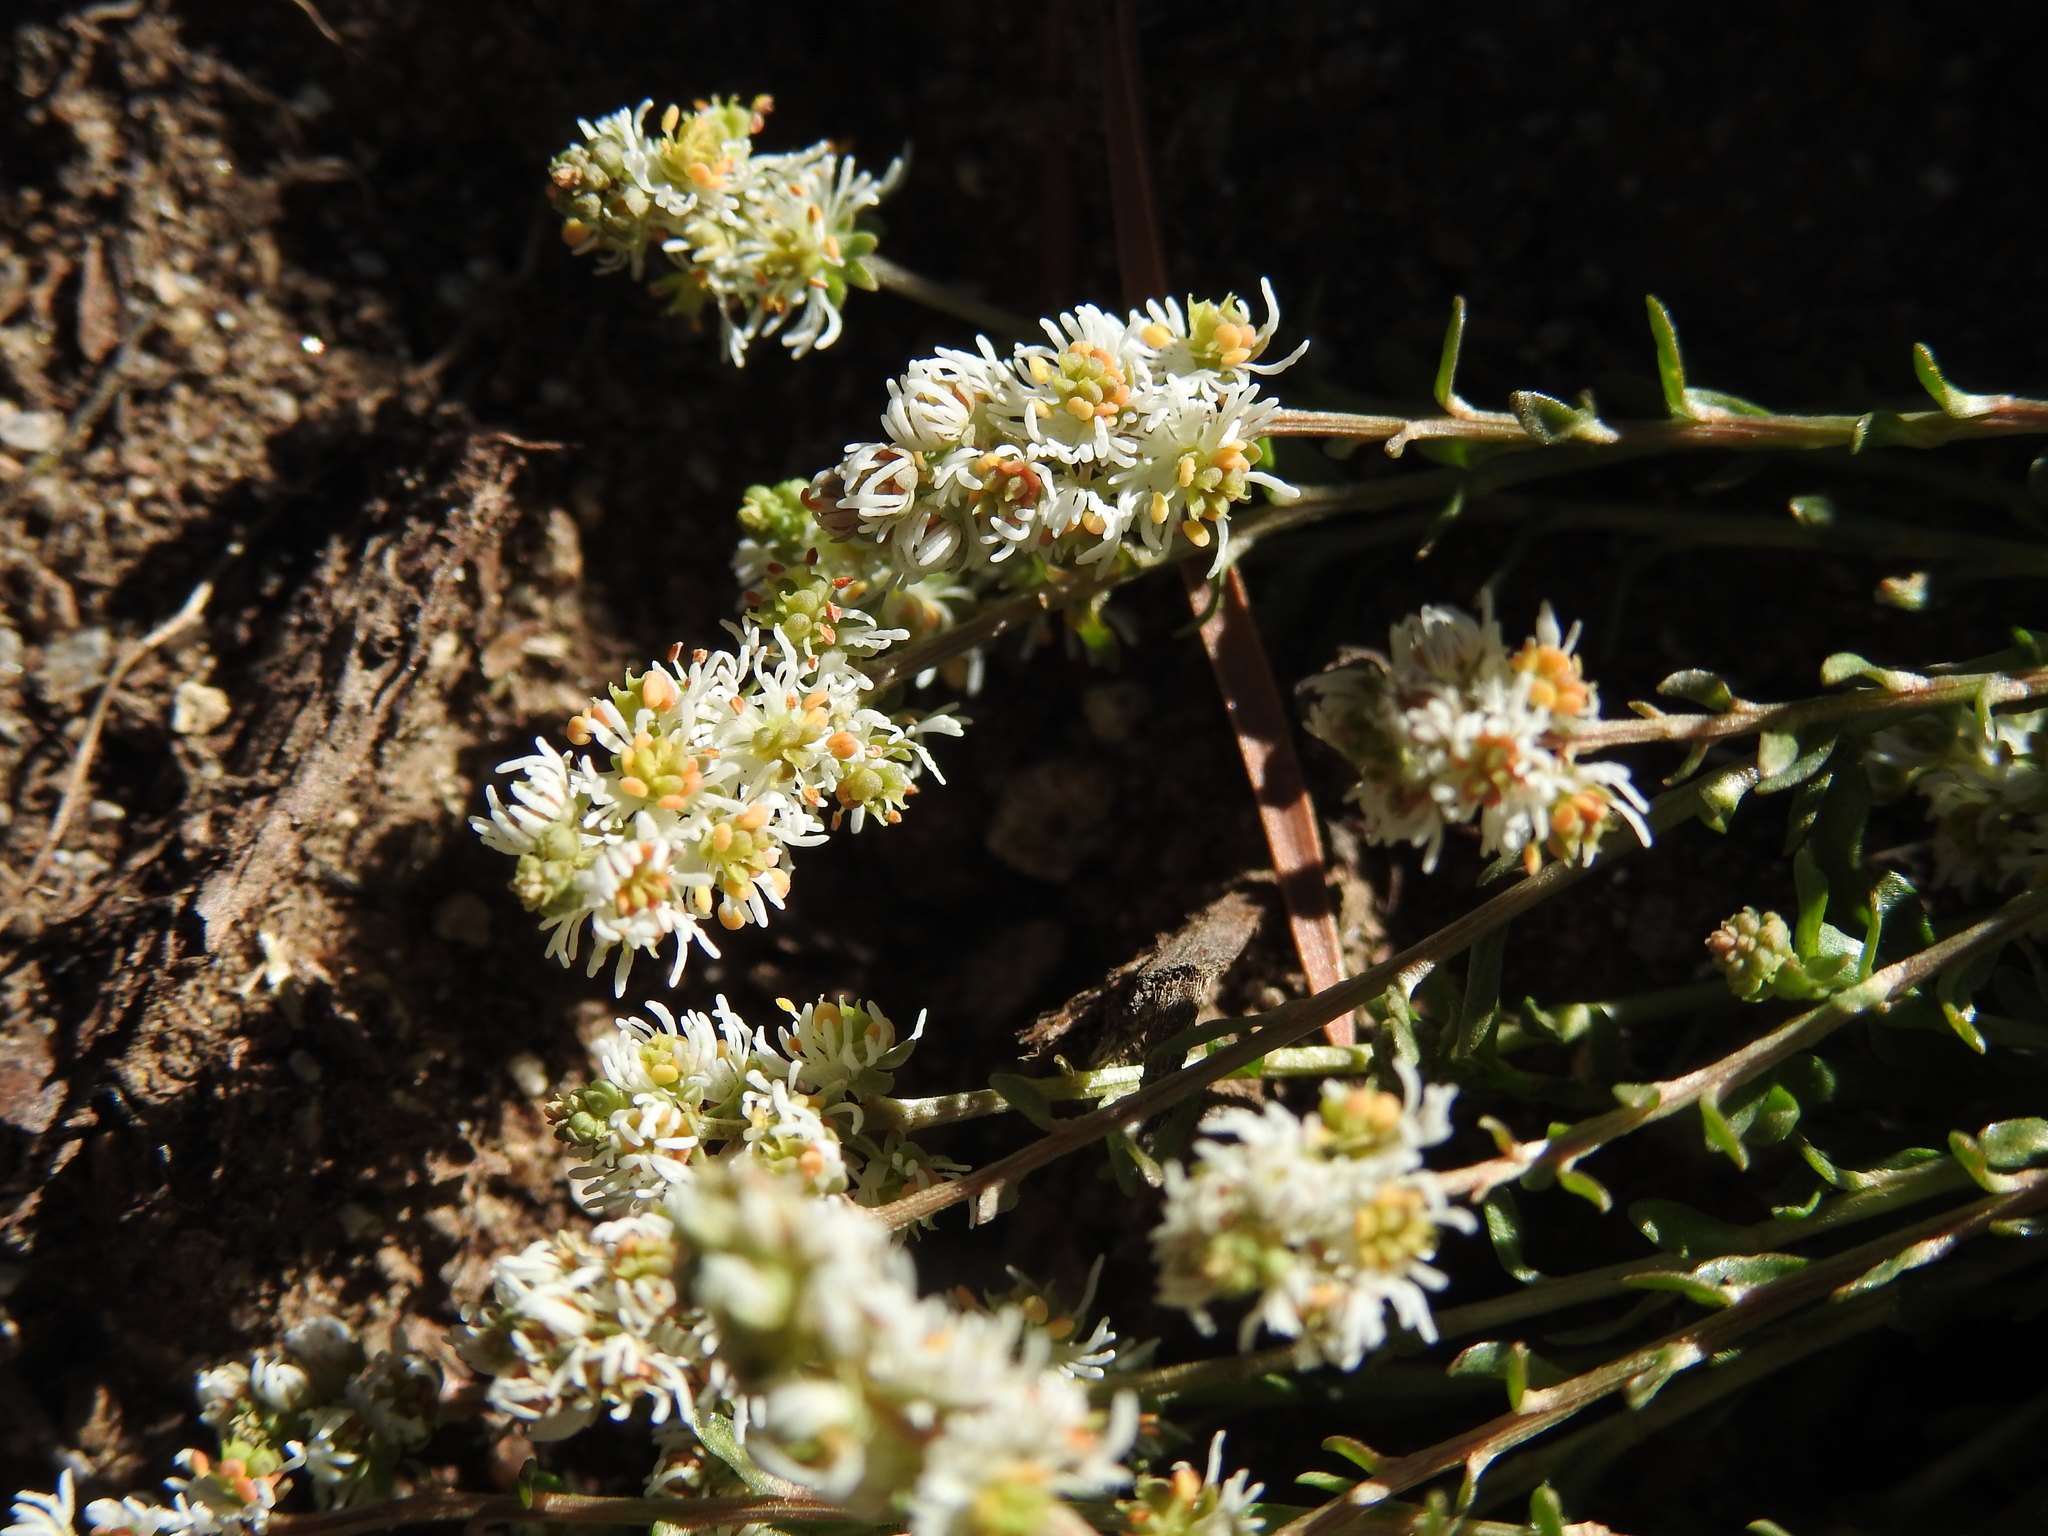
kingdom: Plantae
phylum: Tracheophyta
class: Magnoliopsida
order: Brassicales
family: Resedaceae
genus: Sesamoides
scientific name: Sesamoides interrupta
